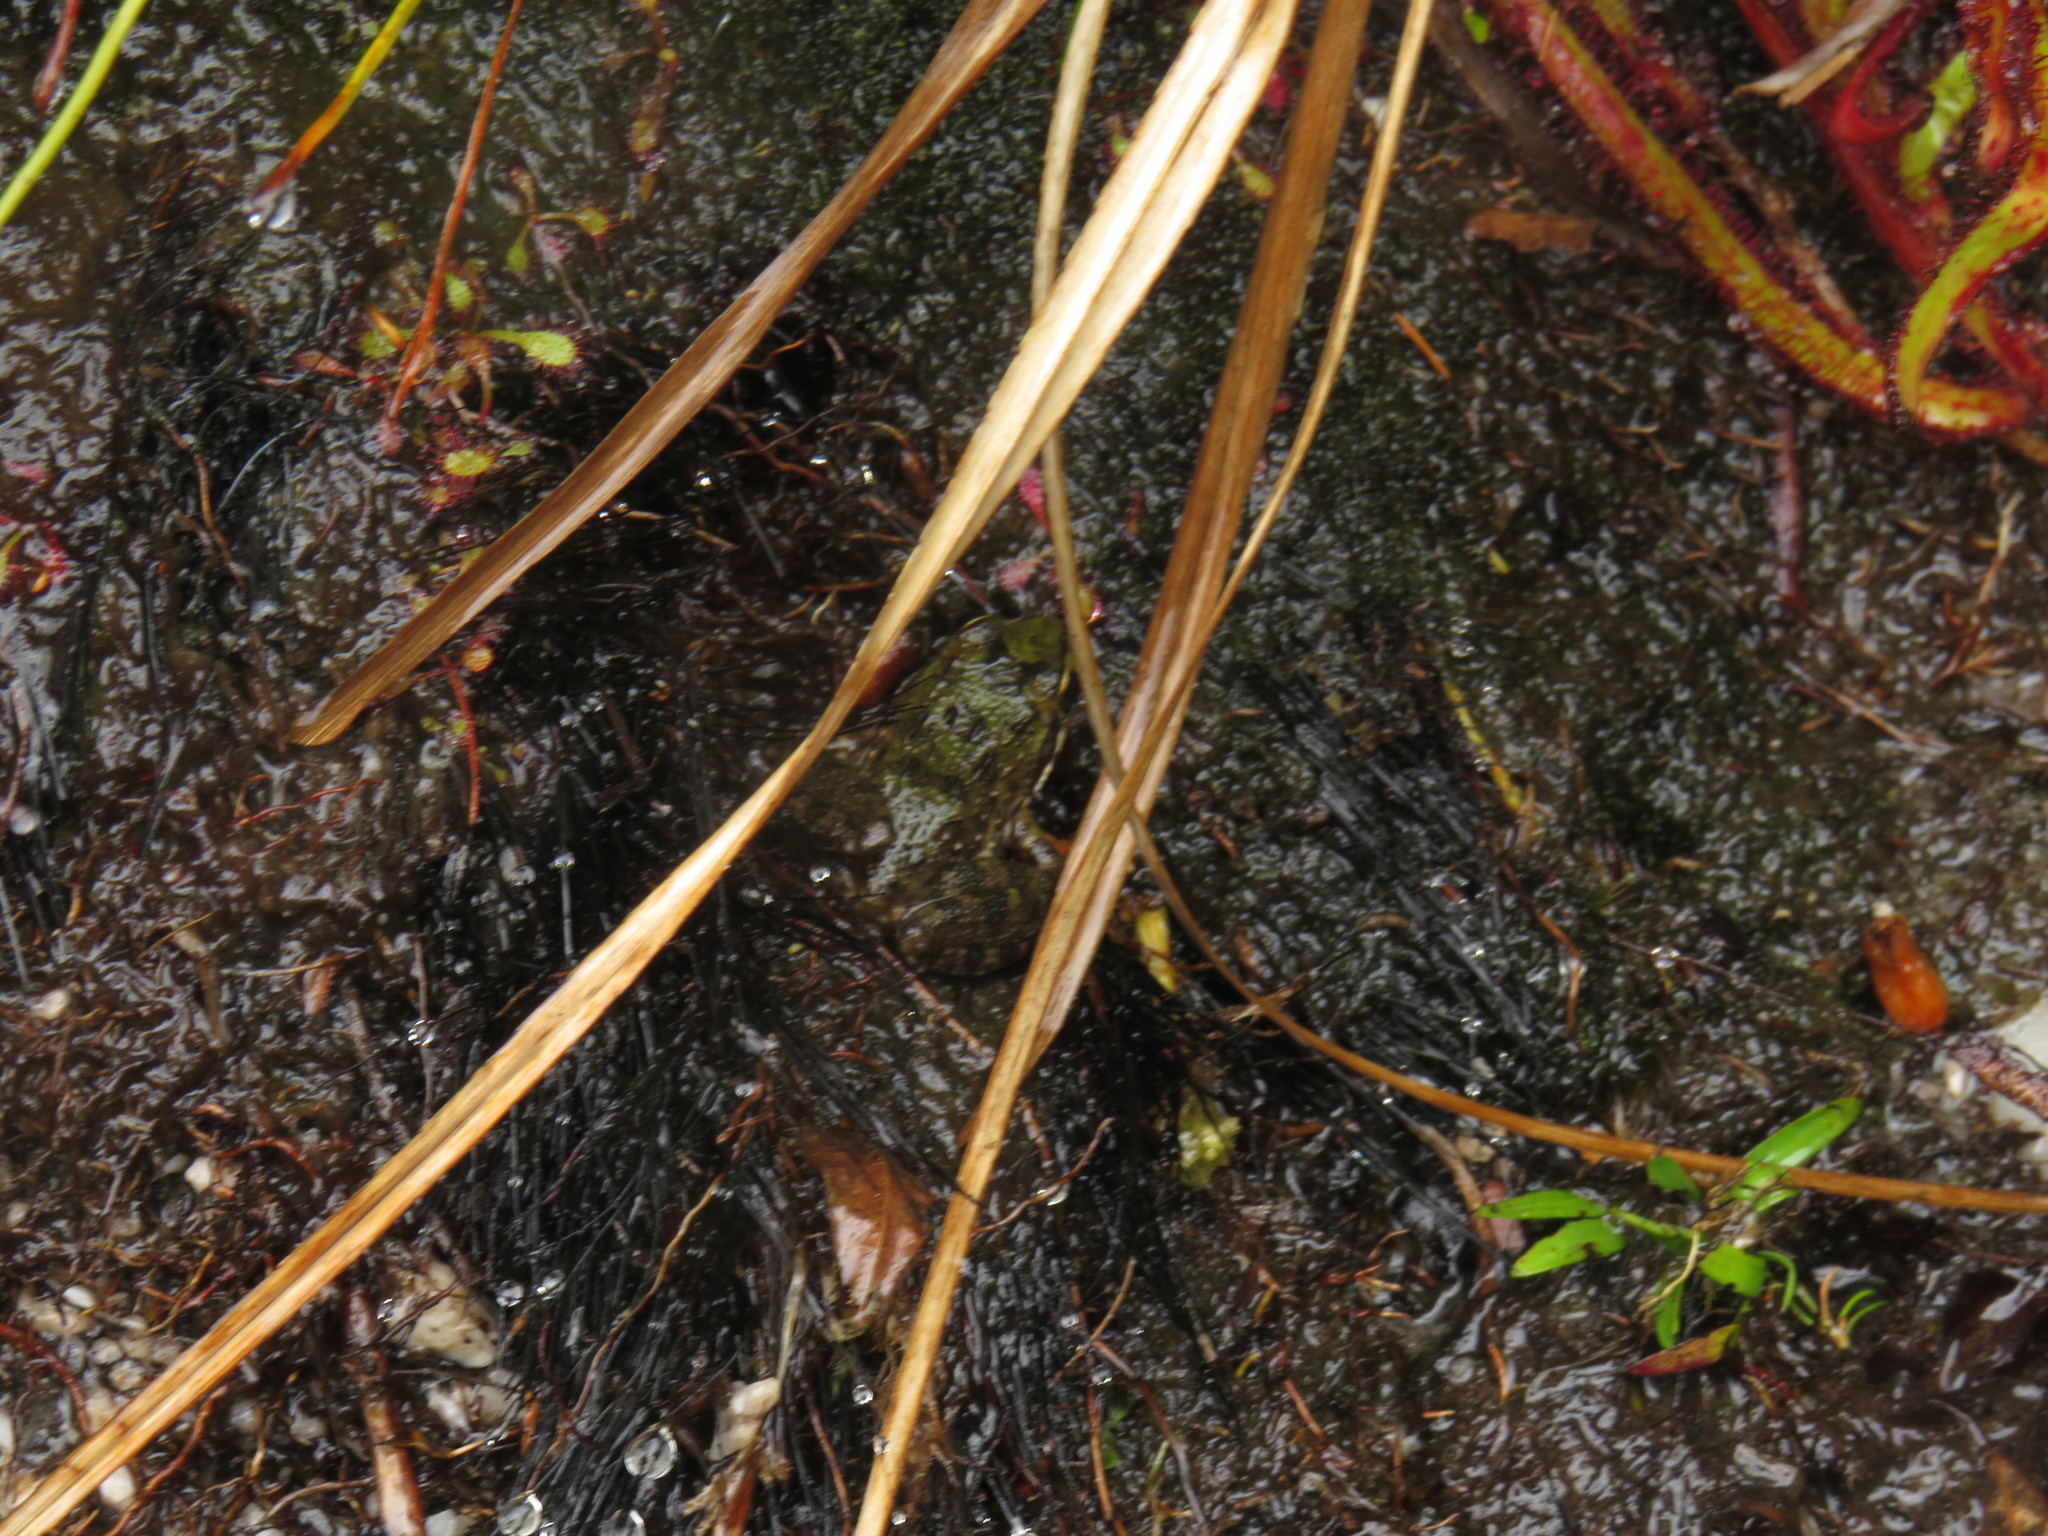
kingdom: Animalia
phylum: Chordata
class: Amphibia
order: Anura
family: Pyxicephalidae
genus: Amietia
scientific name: Amietia fuscigula
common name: Cape rana
